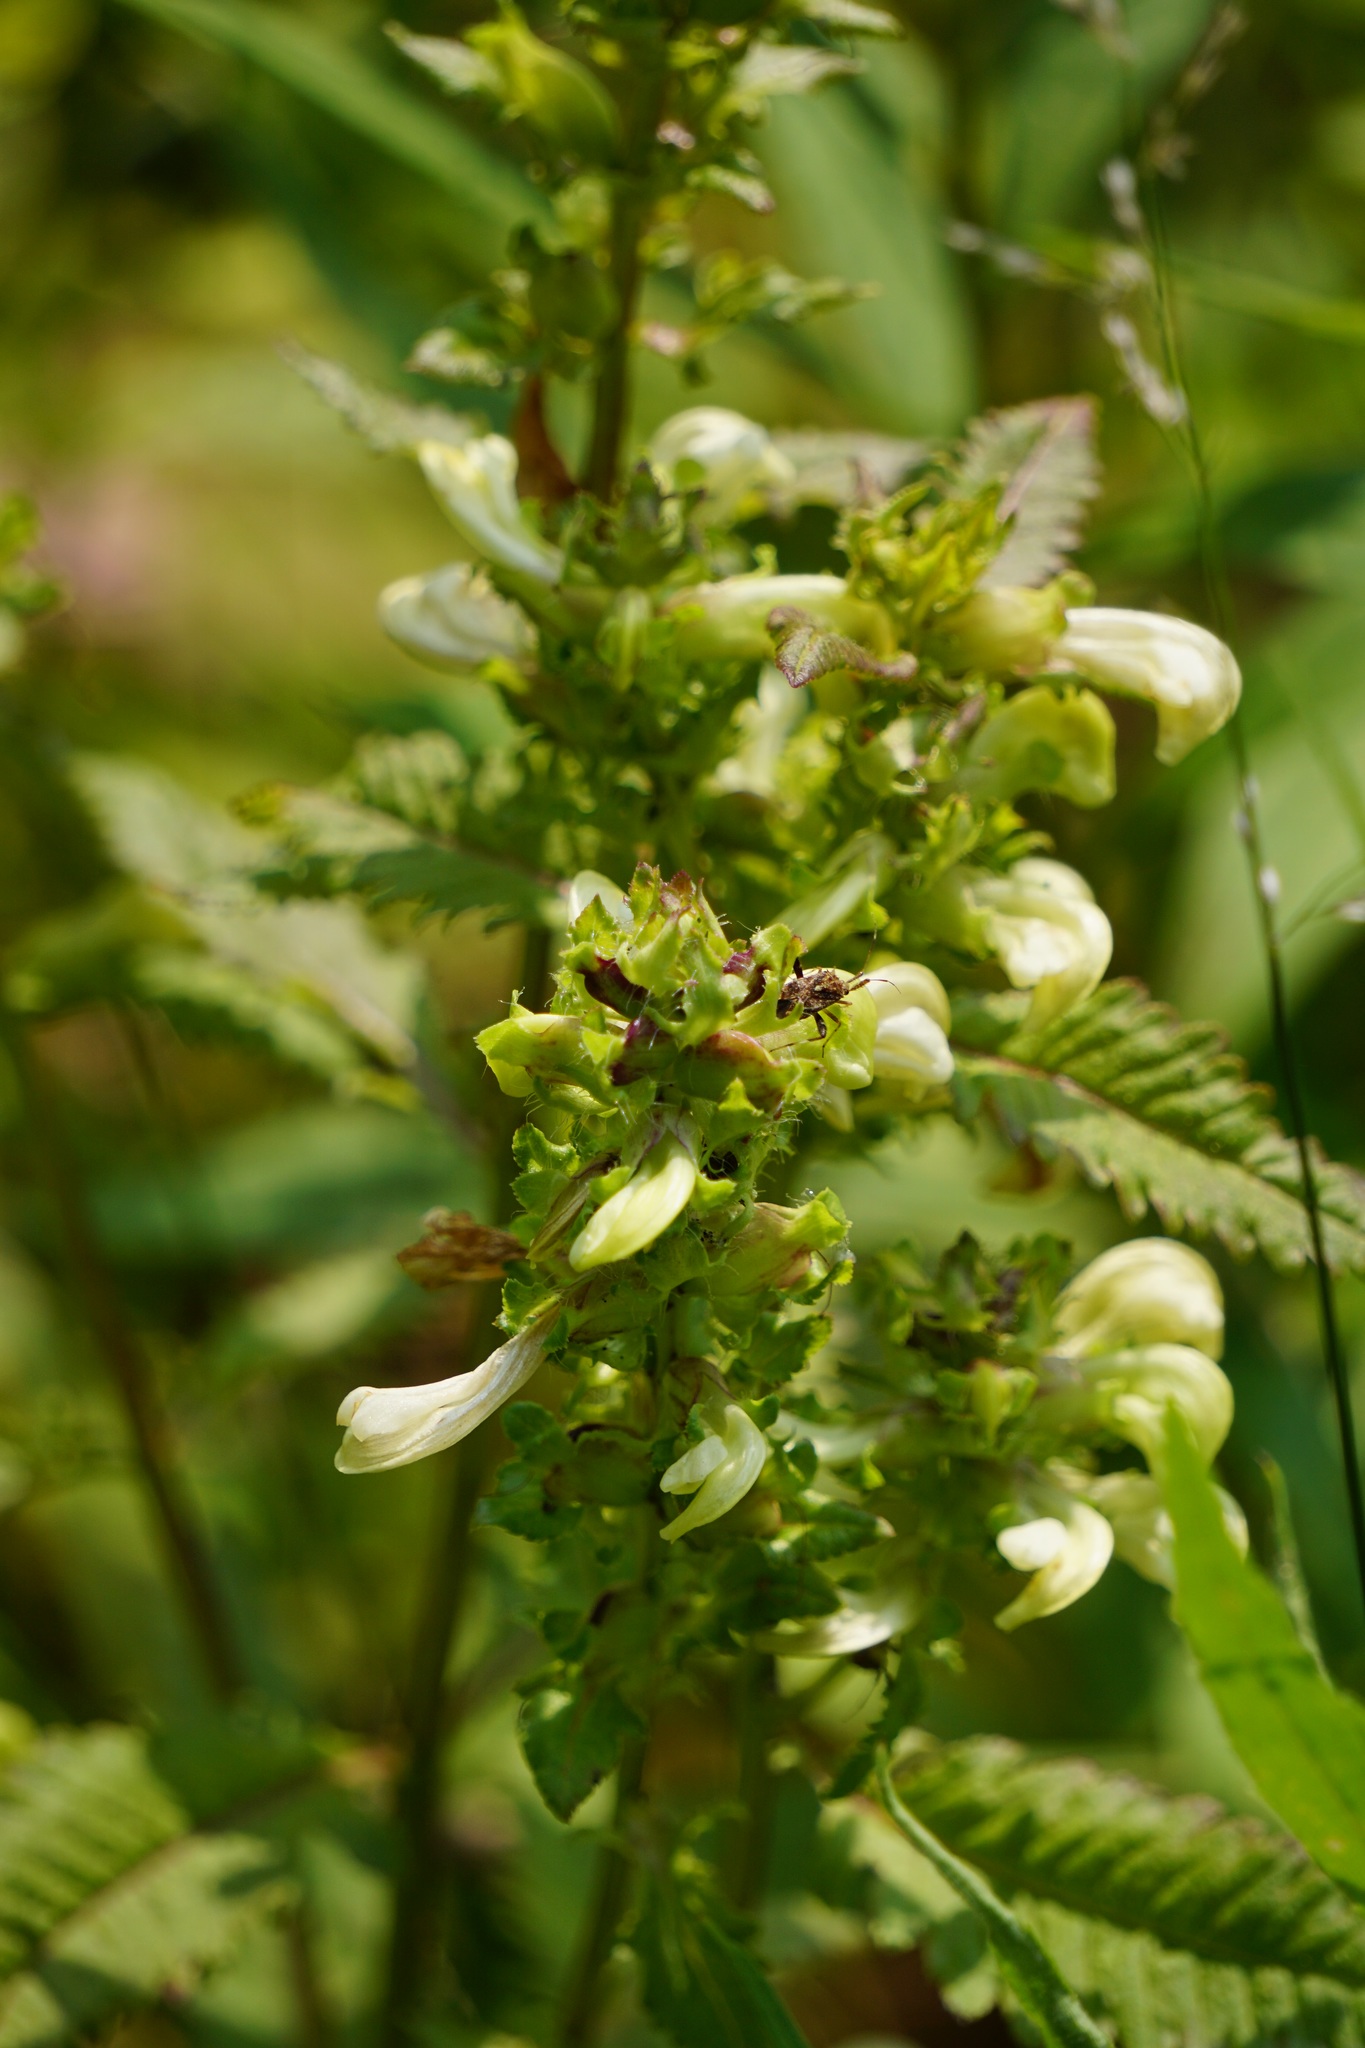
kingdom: Plantae
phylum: Tracheophyta
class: Magnoliopsida
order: Lamiales
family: Orobanchaceae
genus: Pedicularis
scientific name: Pedicularis lanceolata
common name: Swamp lousewort
